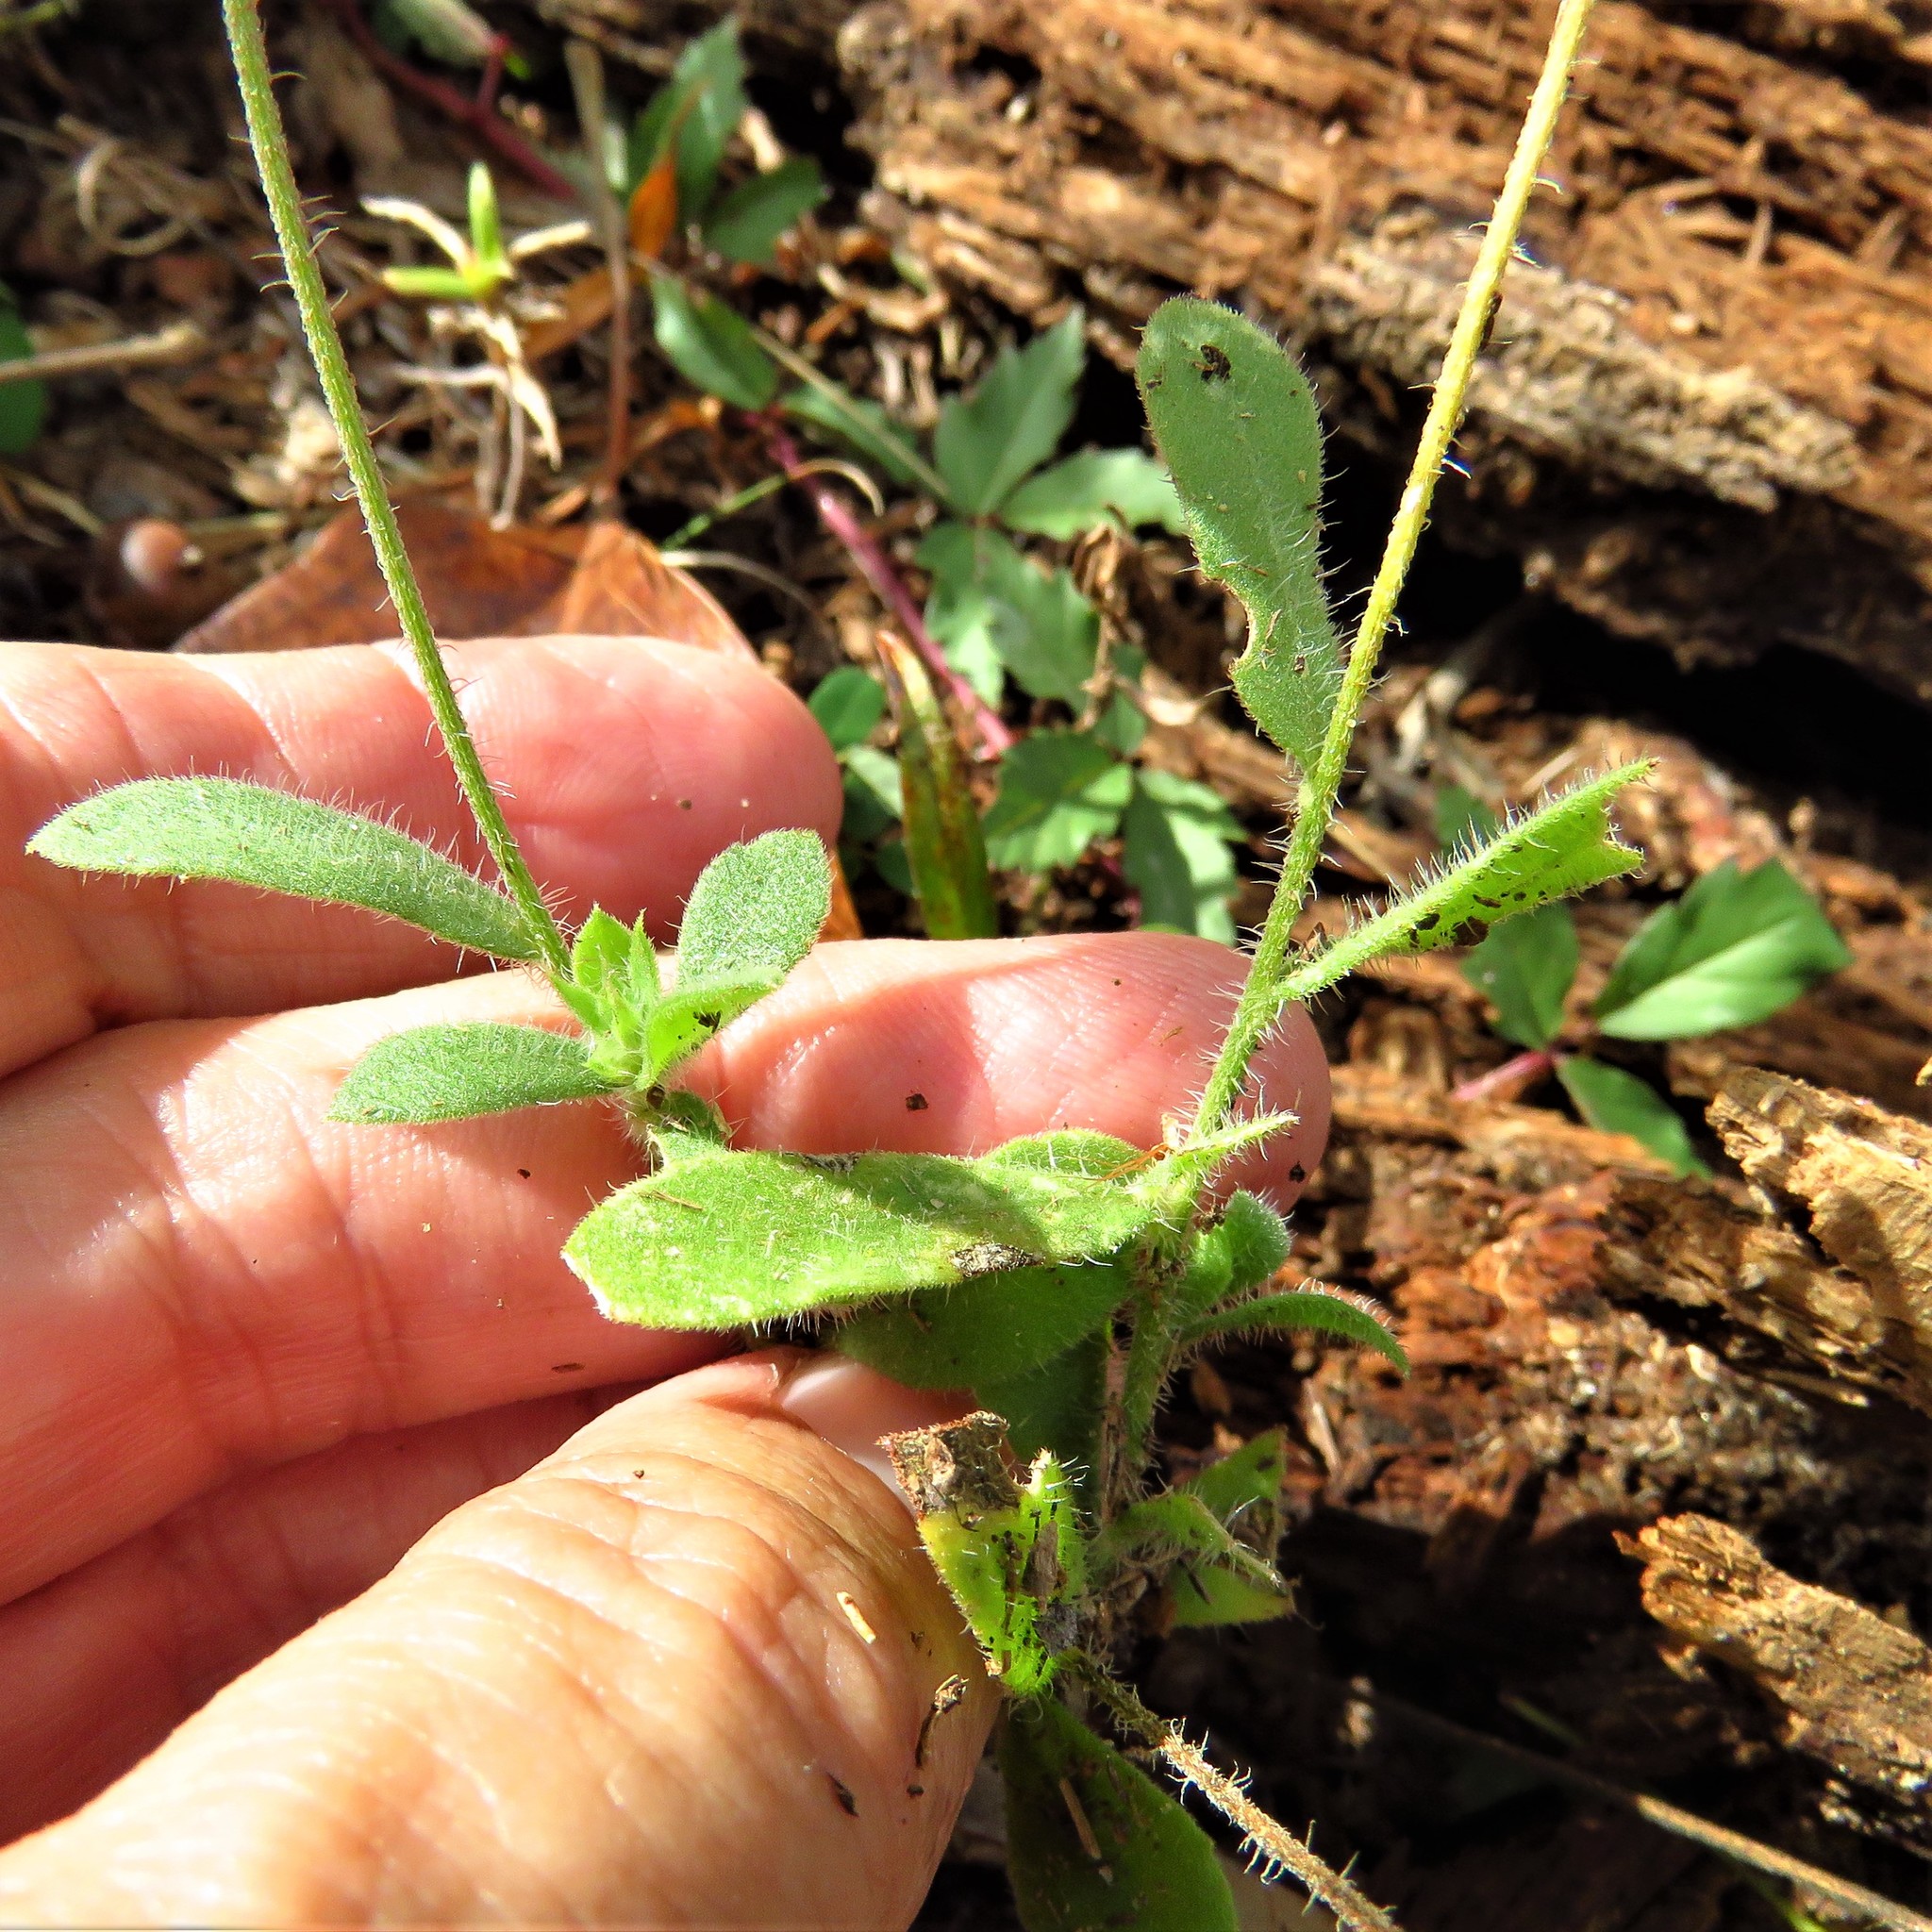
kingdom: Plantae
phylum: Tracheophyta
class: Magnoliopsida
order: Asterales
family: Asteraceae
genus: Gaillardia
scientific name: Gaillardia pulchella
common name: Firewheel
